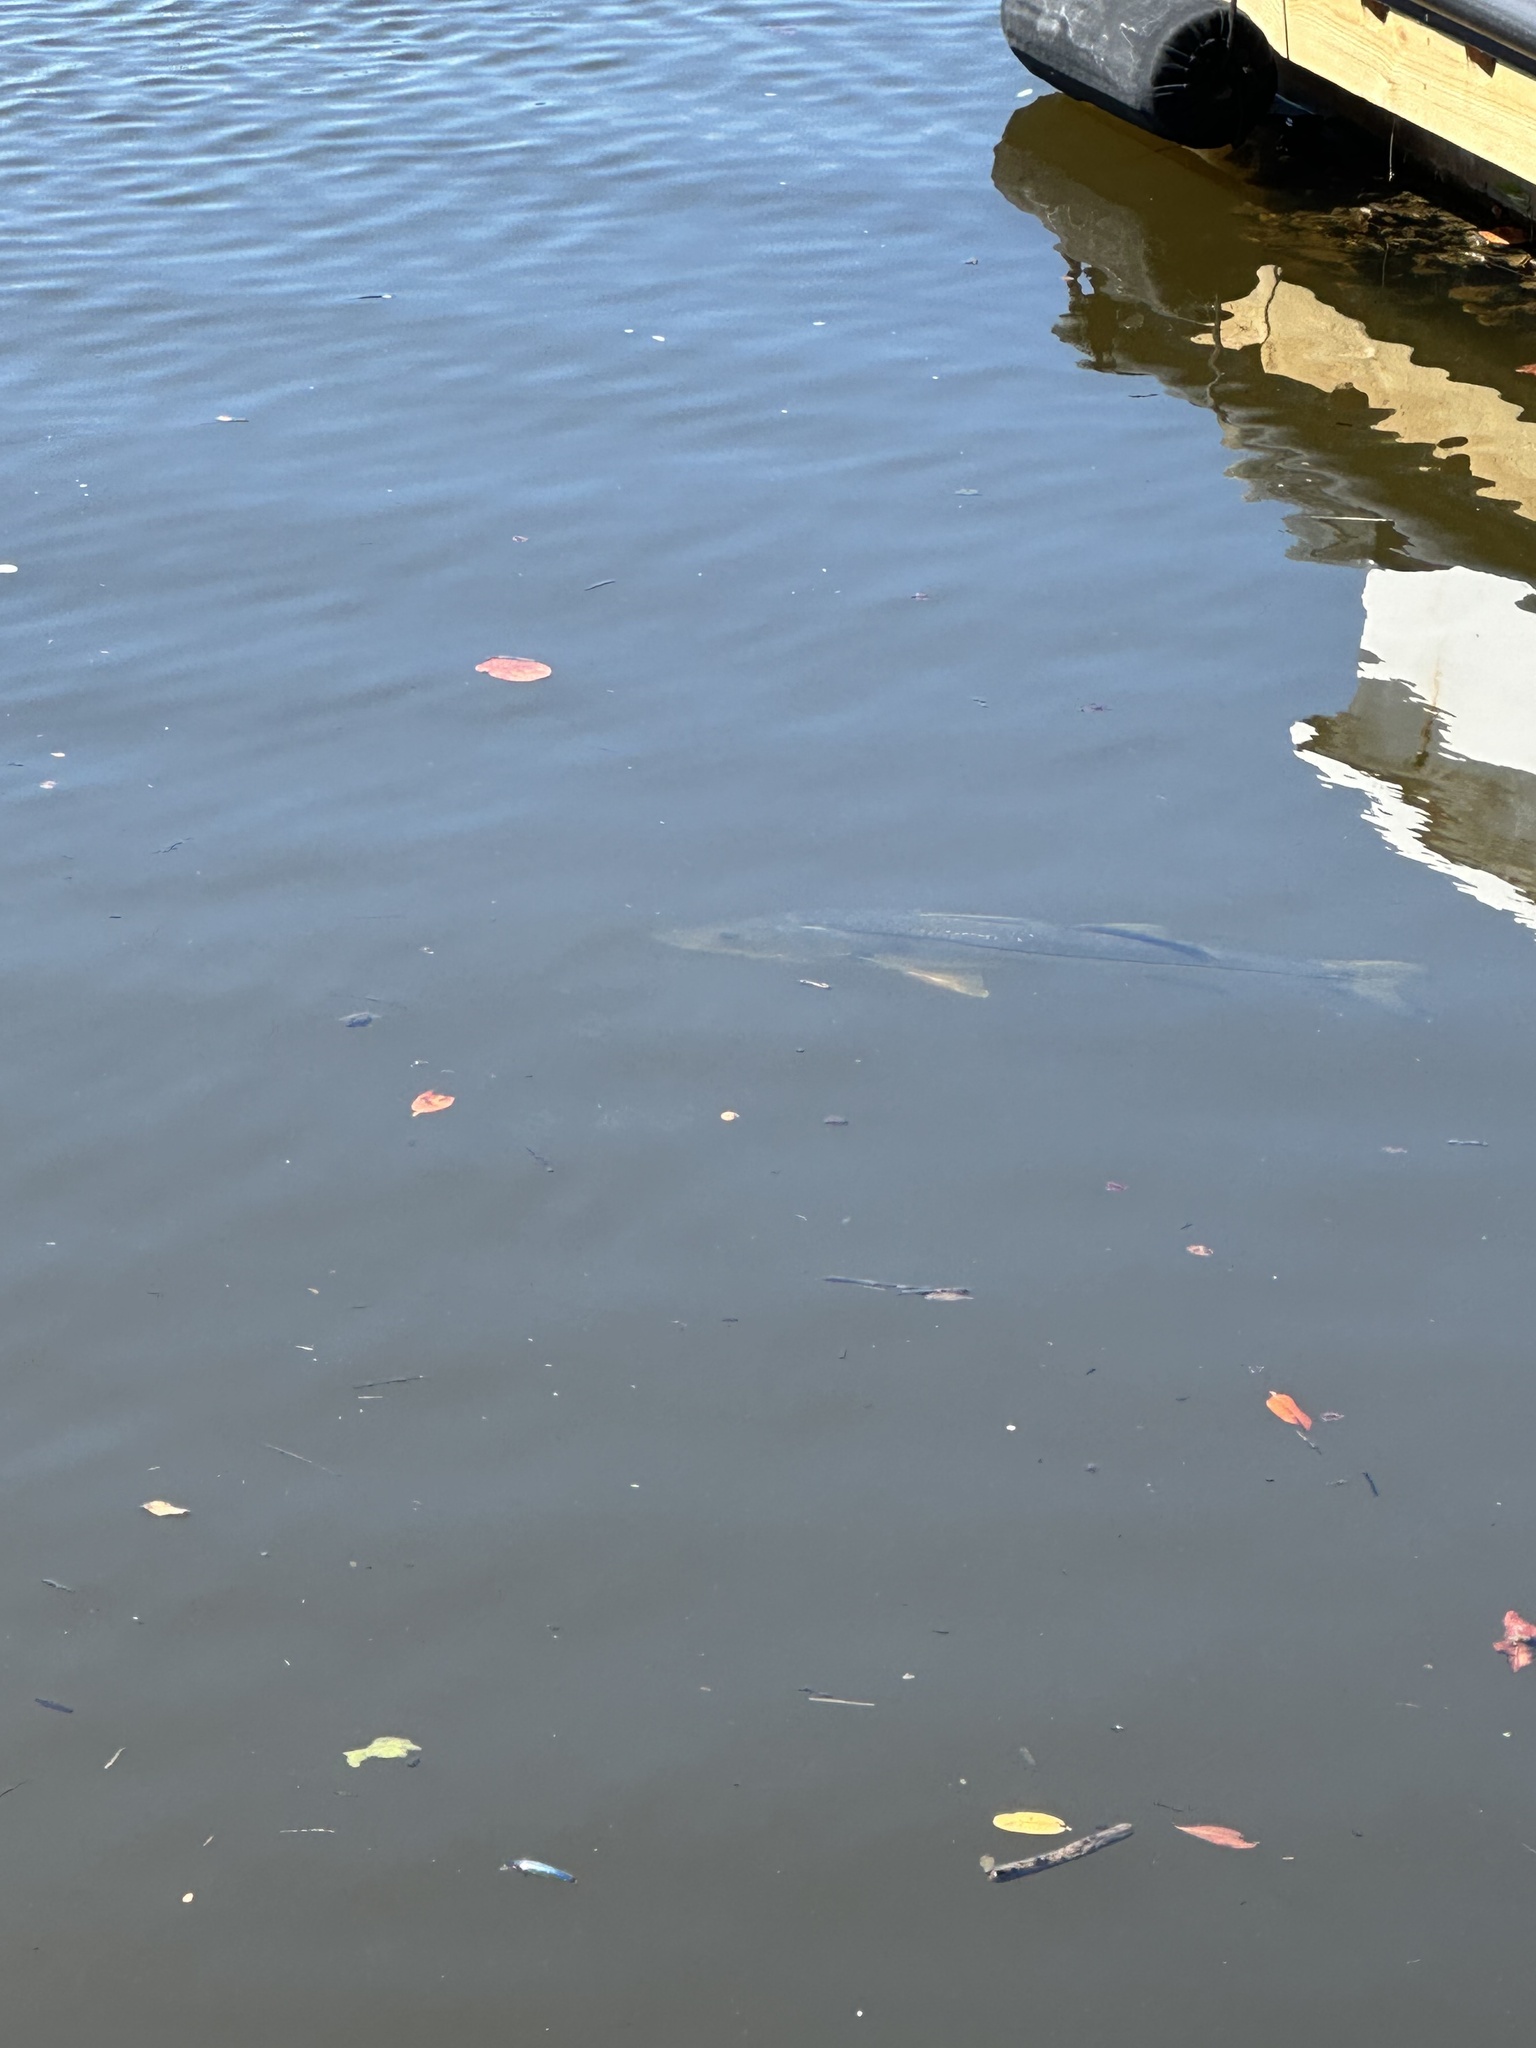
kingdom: Animalia
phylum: Chordata
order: Perciformes
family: Centropomidae
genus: Centropomus
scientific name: Centropomus undecimalis
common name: Snook
